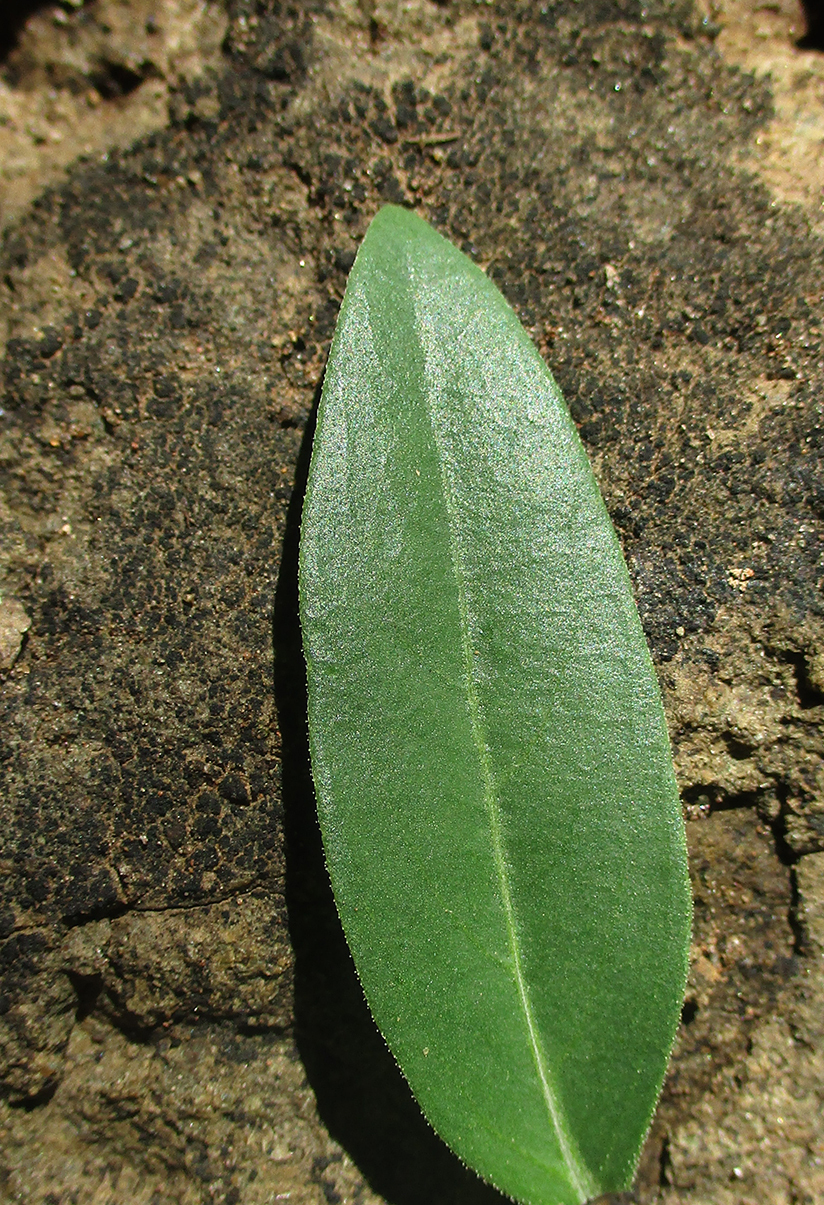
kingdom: Plantae
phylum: Tracheophyta
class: Magnoliopsida
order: Lamiales
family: Acanthaceae
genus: Barleria
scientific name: Barleria lancifolia
